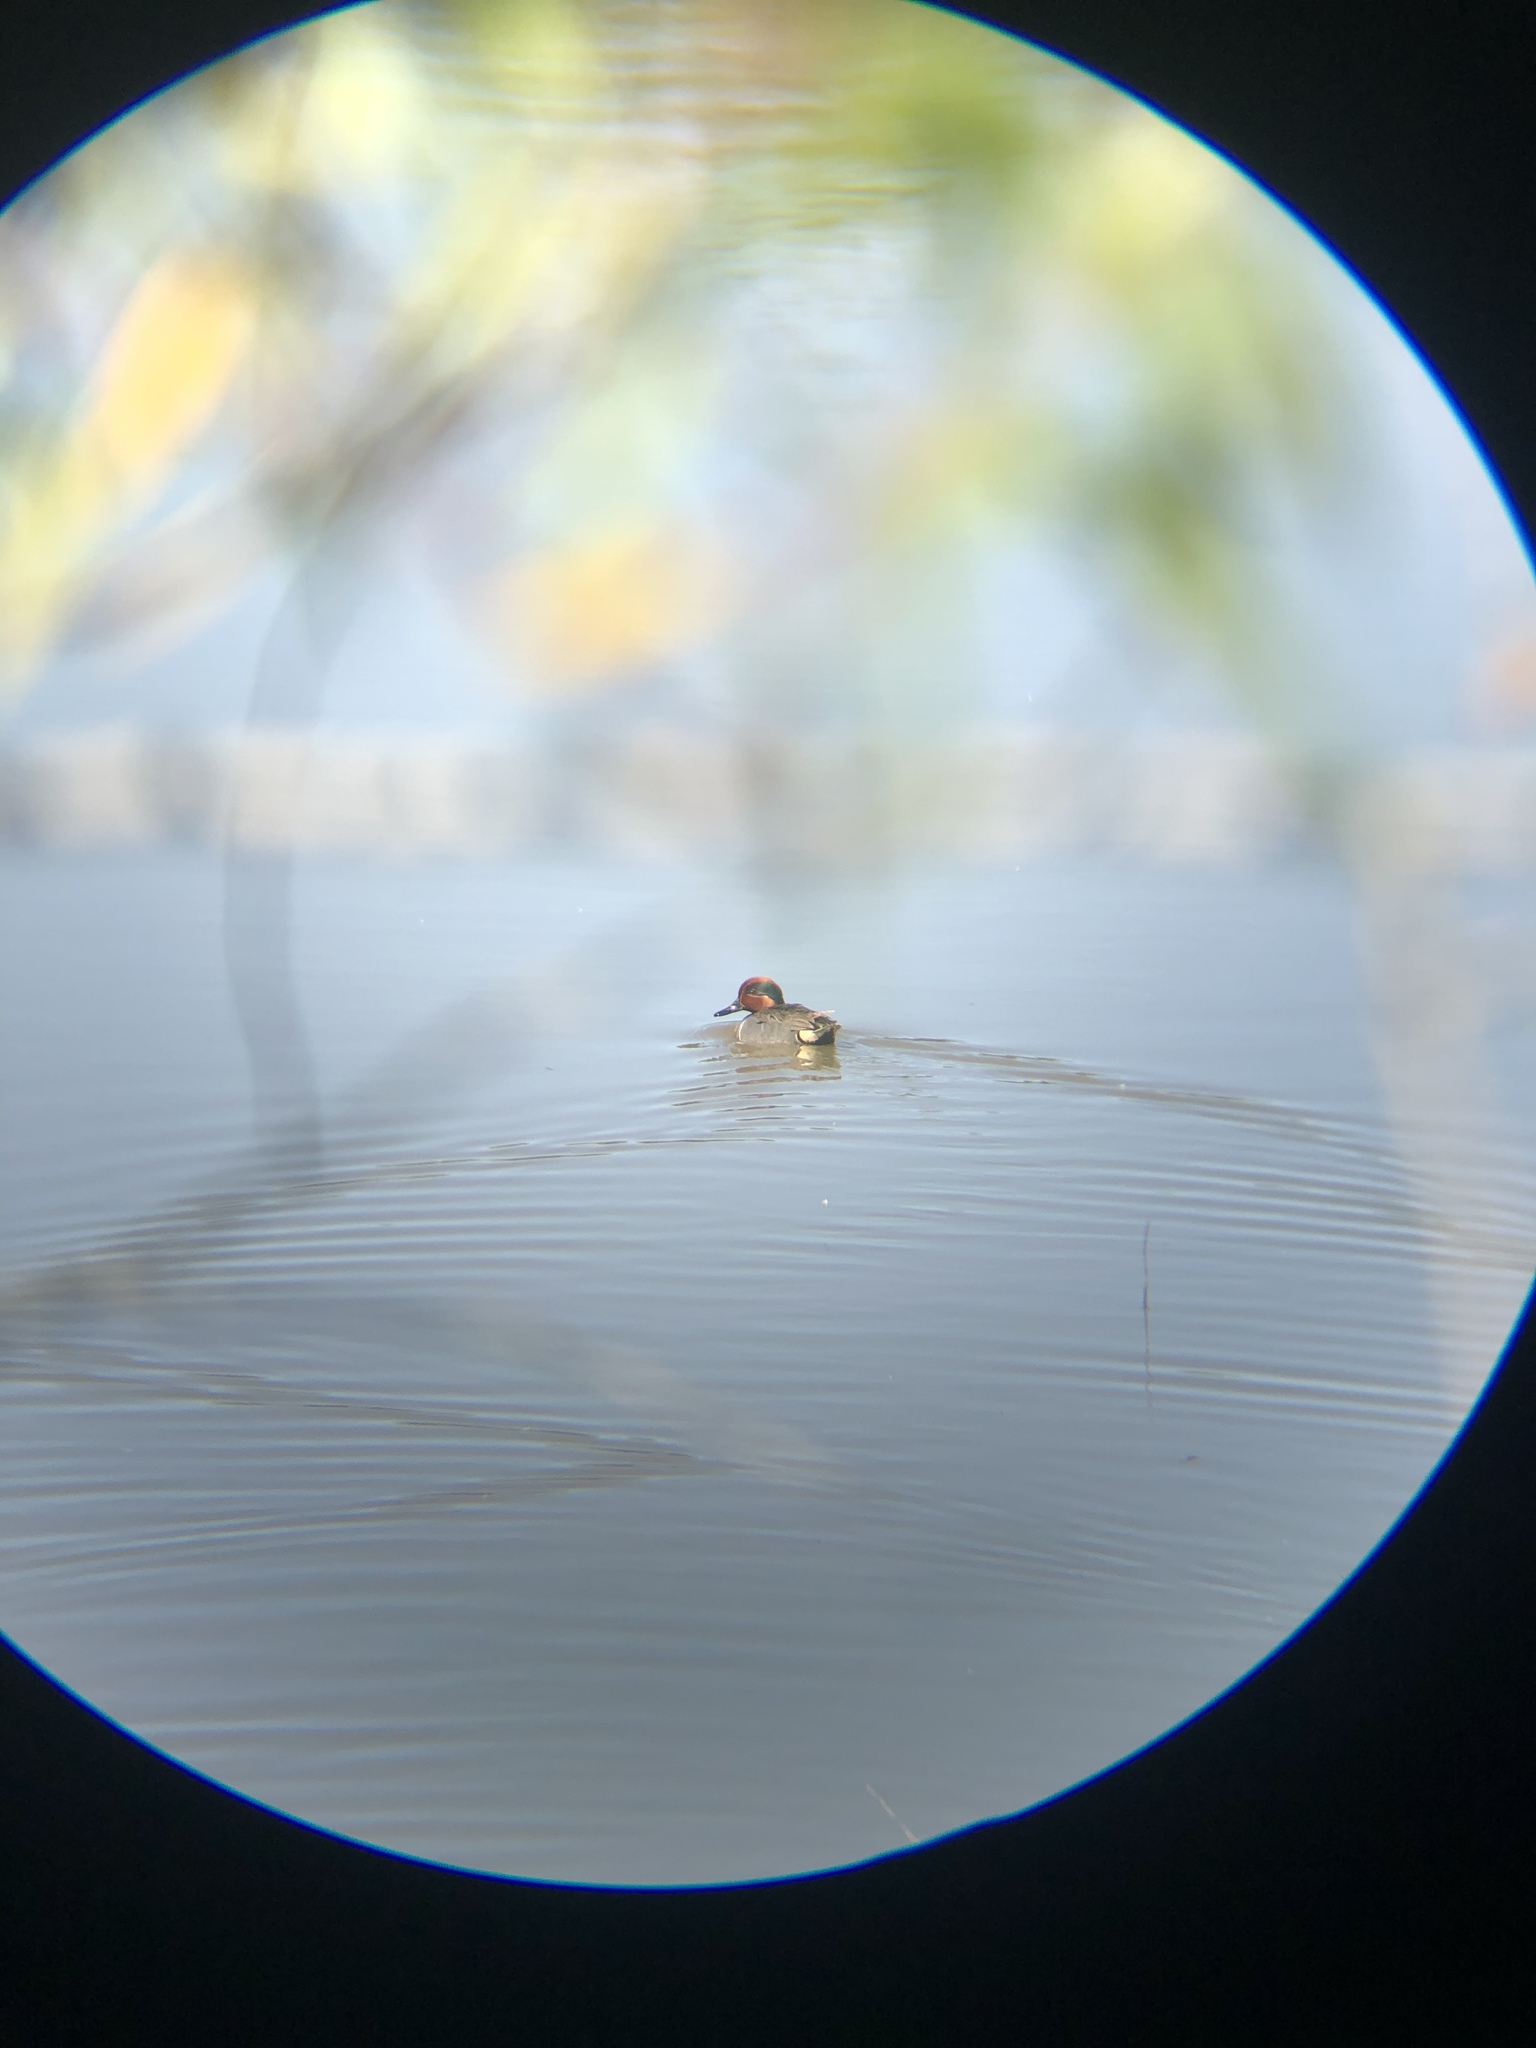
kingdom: Animalia
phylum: Chordata
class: Aves
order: Anseriformes
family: Anatidae
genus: Anas
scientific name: Anas crecca
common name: Eurasian teal
